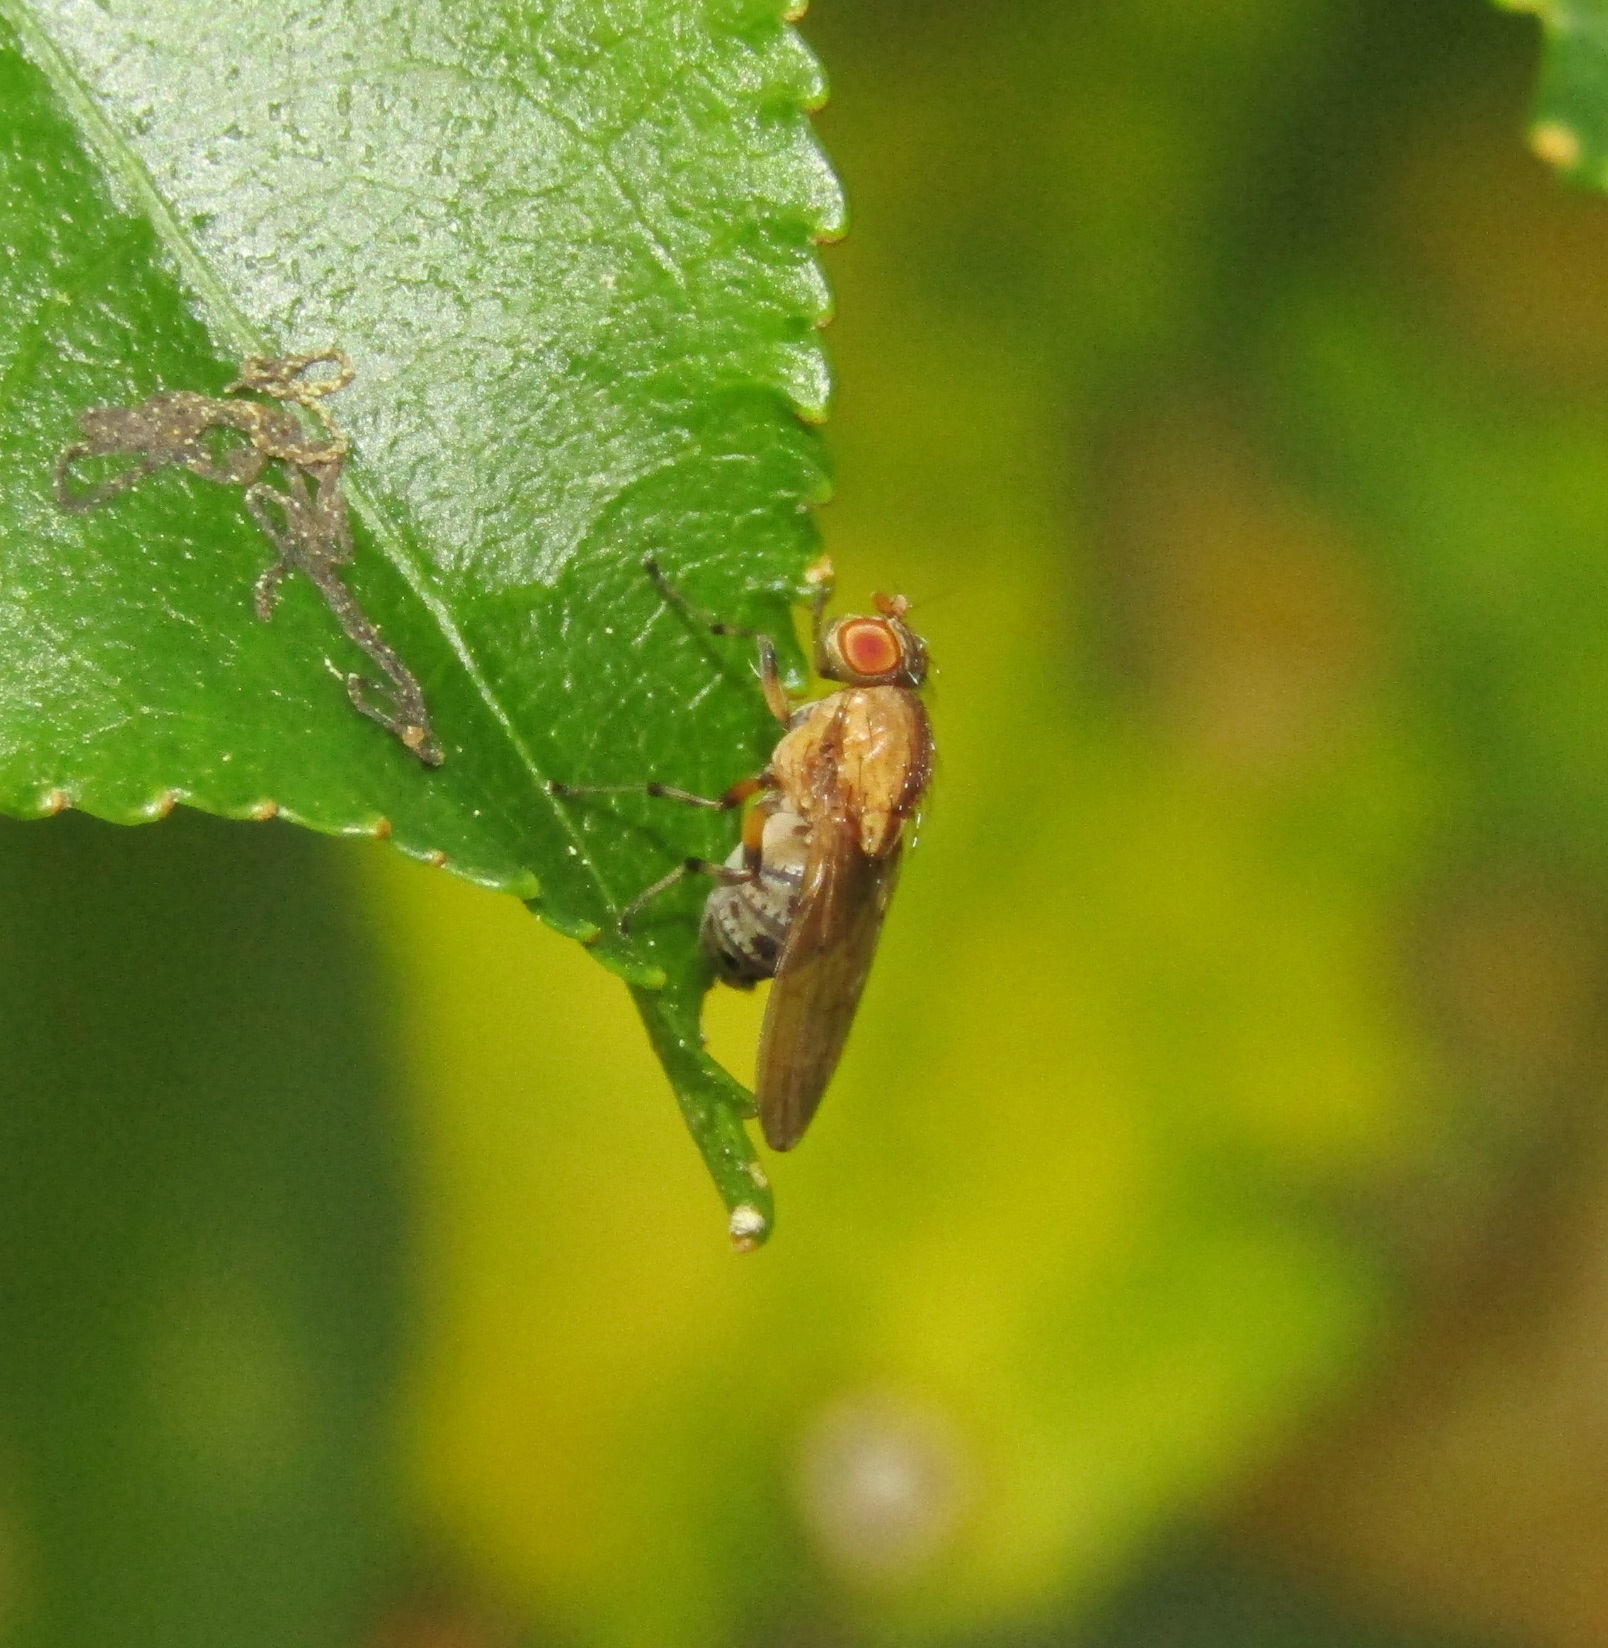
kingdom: Animalia
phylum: Arthropoda
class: Insecta
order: Diptera
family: Lauxaniidae
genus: Sapromyza
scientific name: Sapromyza neozelandica
